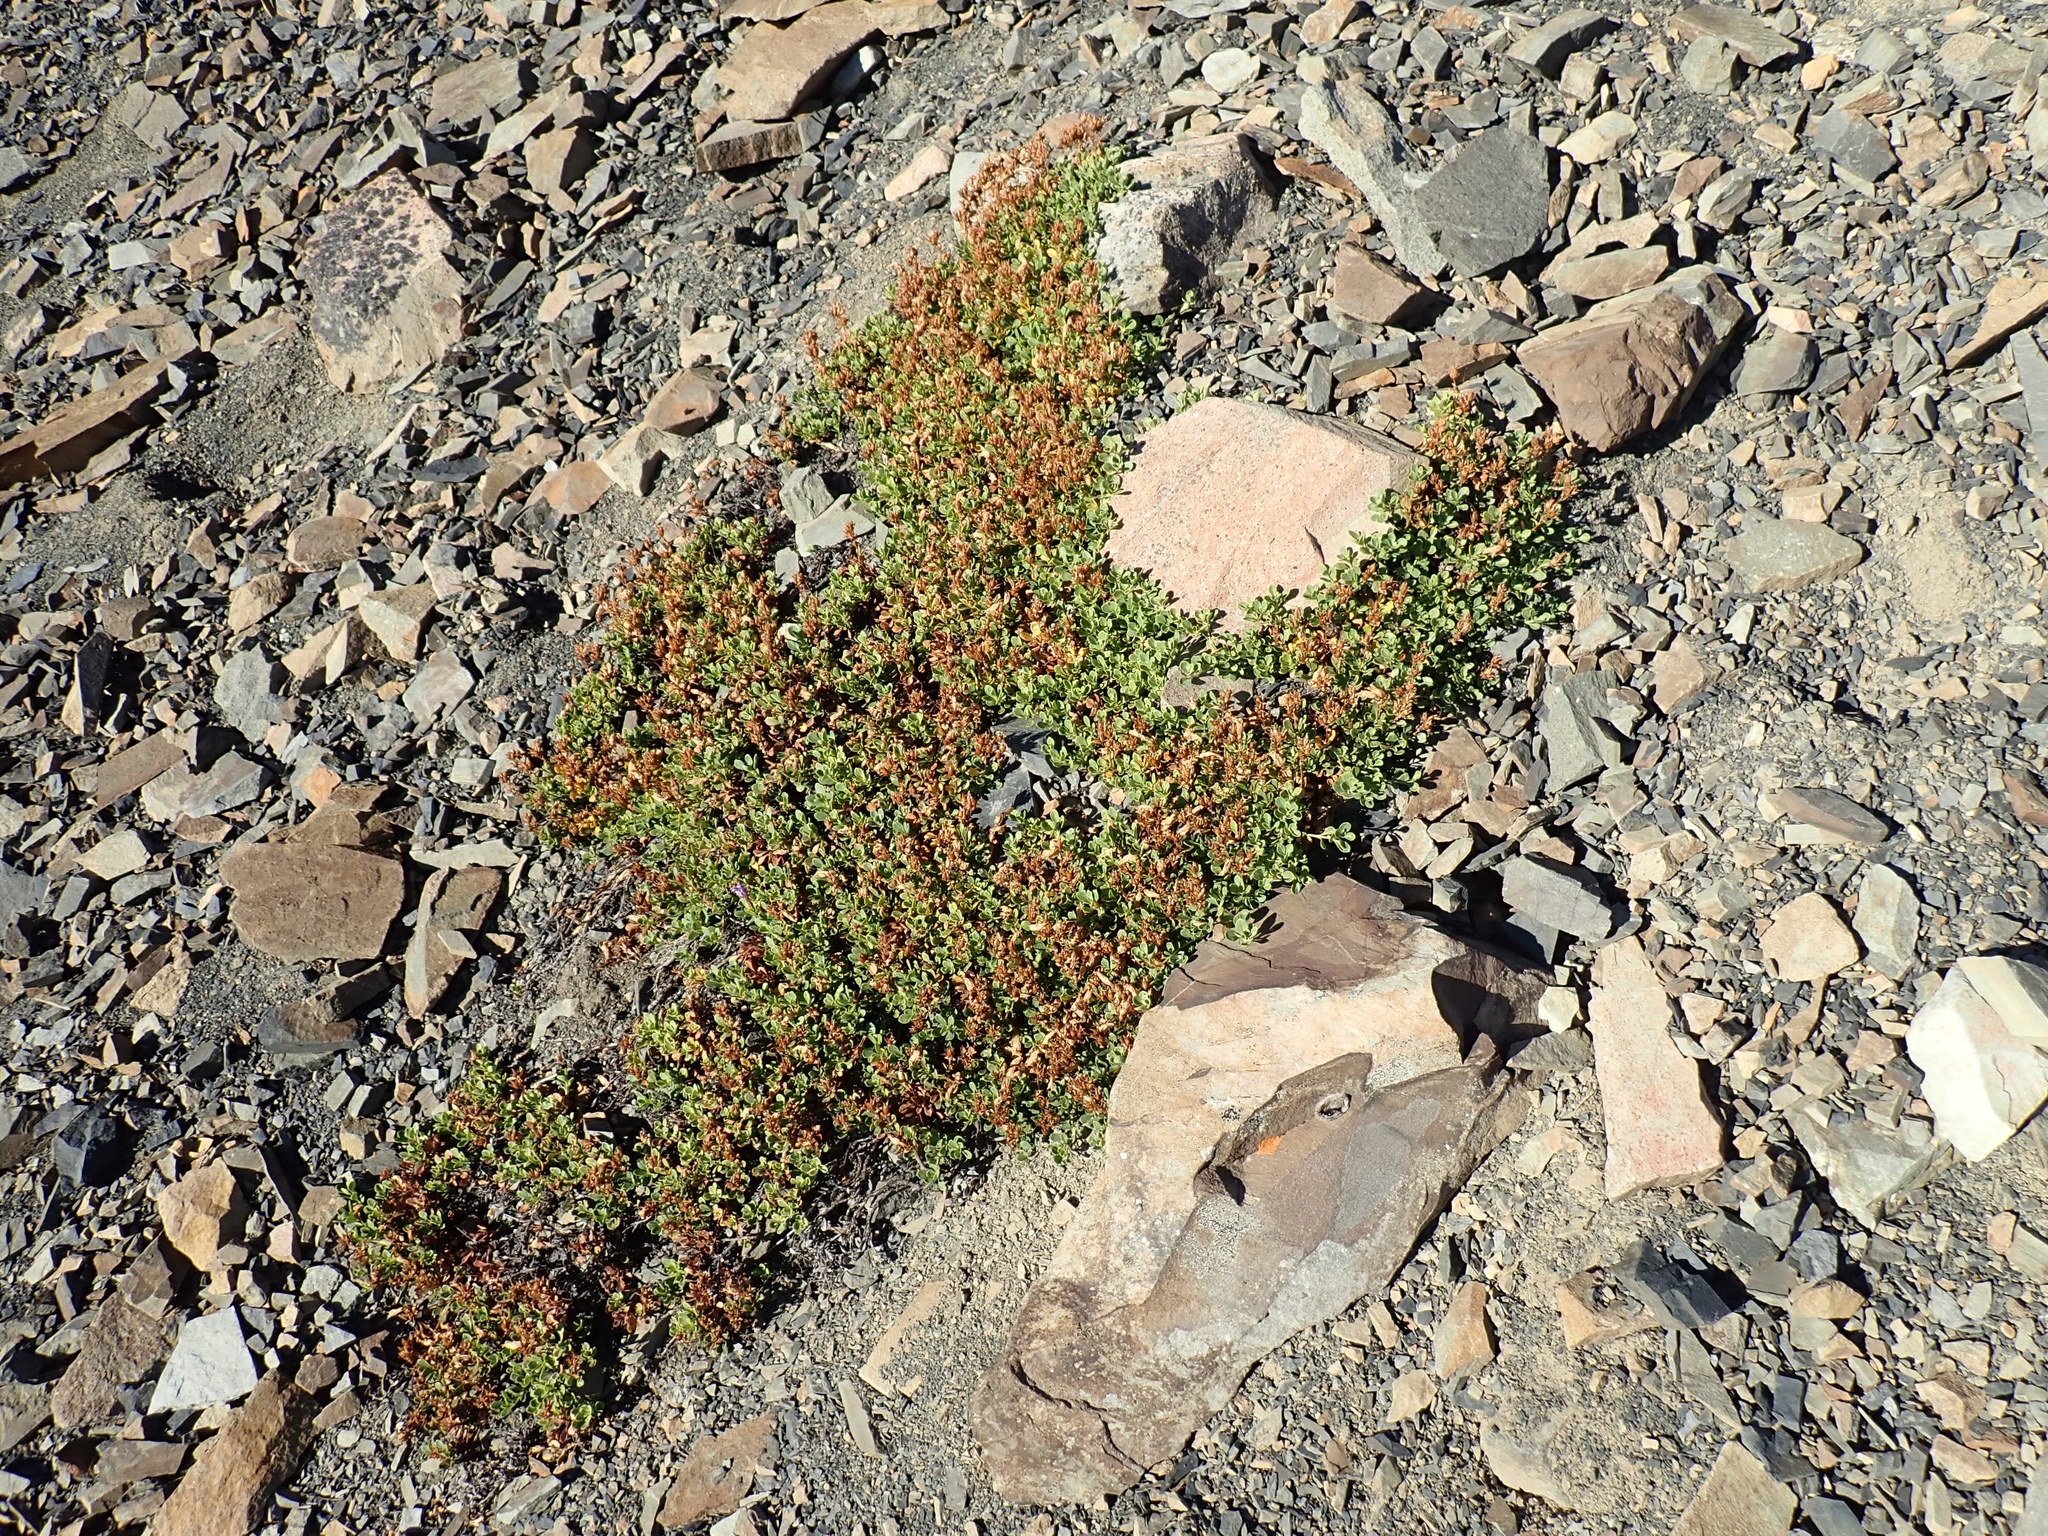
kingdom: Plantae
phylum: Tracheophyta
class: Magnoliopsida
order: Lamiales
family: Plantaginaceae
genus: Penstemon
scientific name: Penstemon davidsonii
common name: Davidson's penstemon
